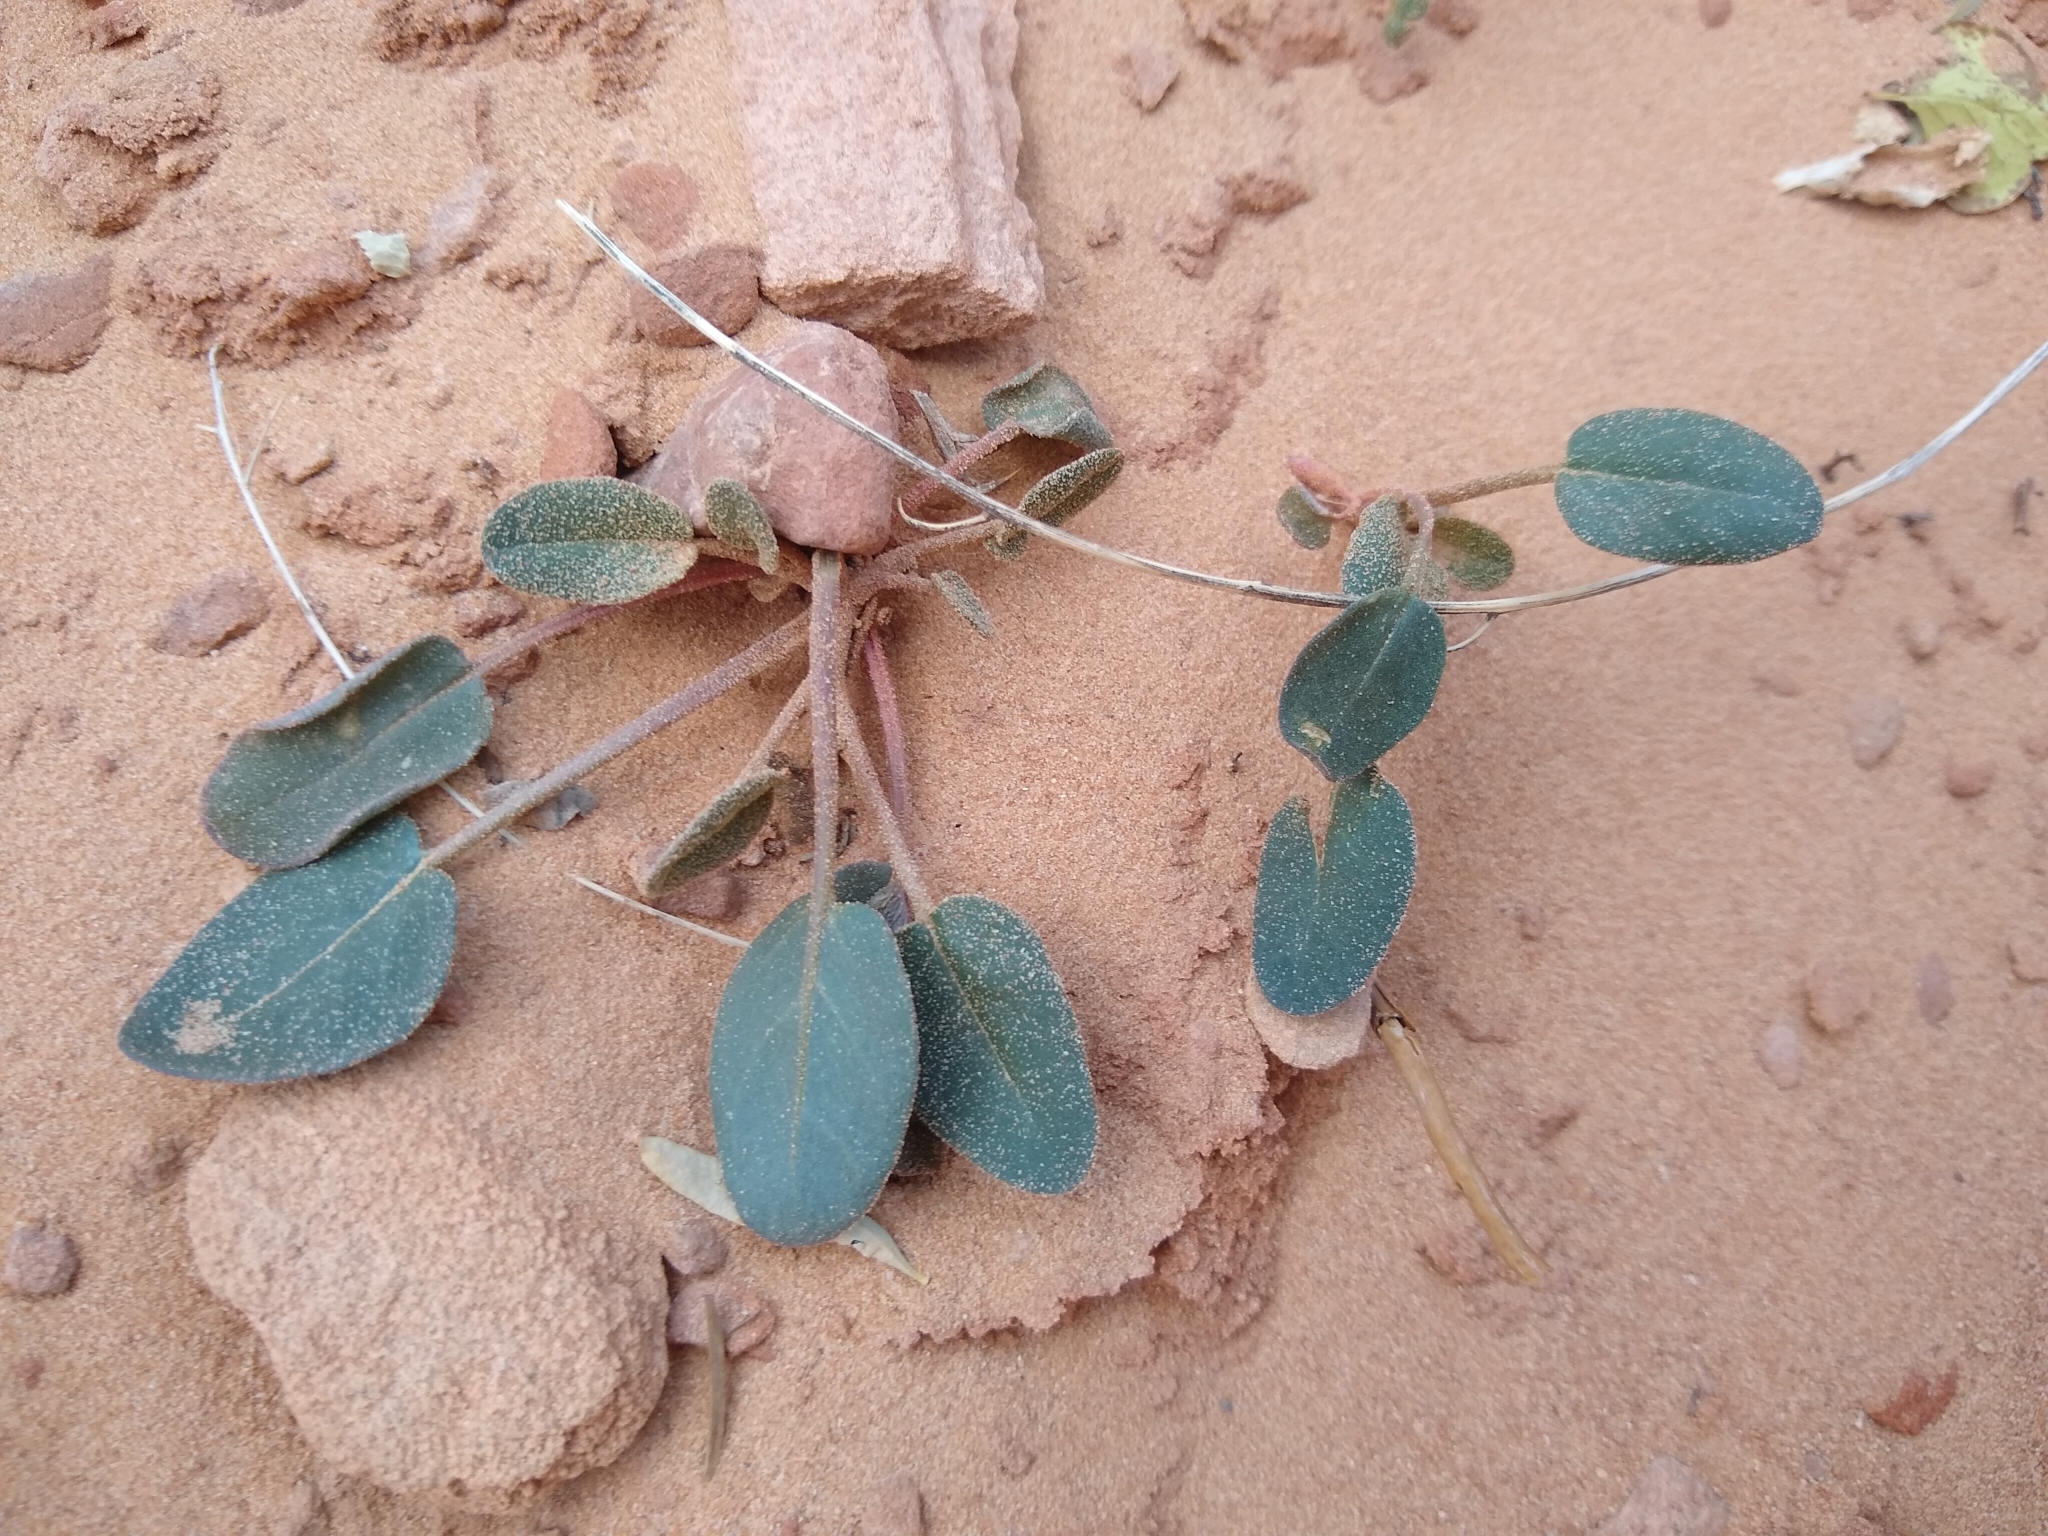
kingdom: Plantae
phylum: Tracheophyta
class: Magnoliopsida
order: Caryophyllales
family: Nyctaginaceae
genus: Abronia
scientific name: Abronia elliptica
